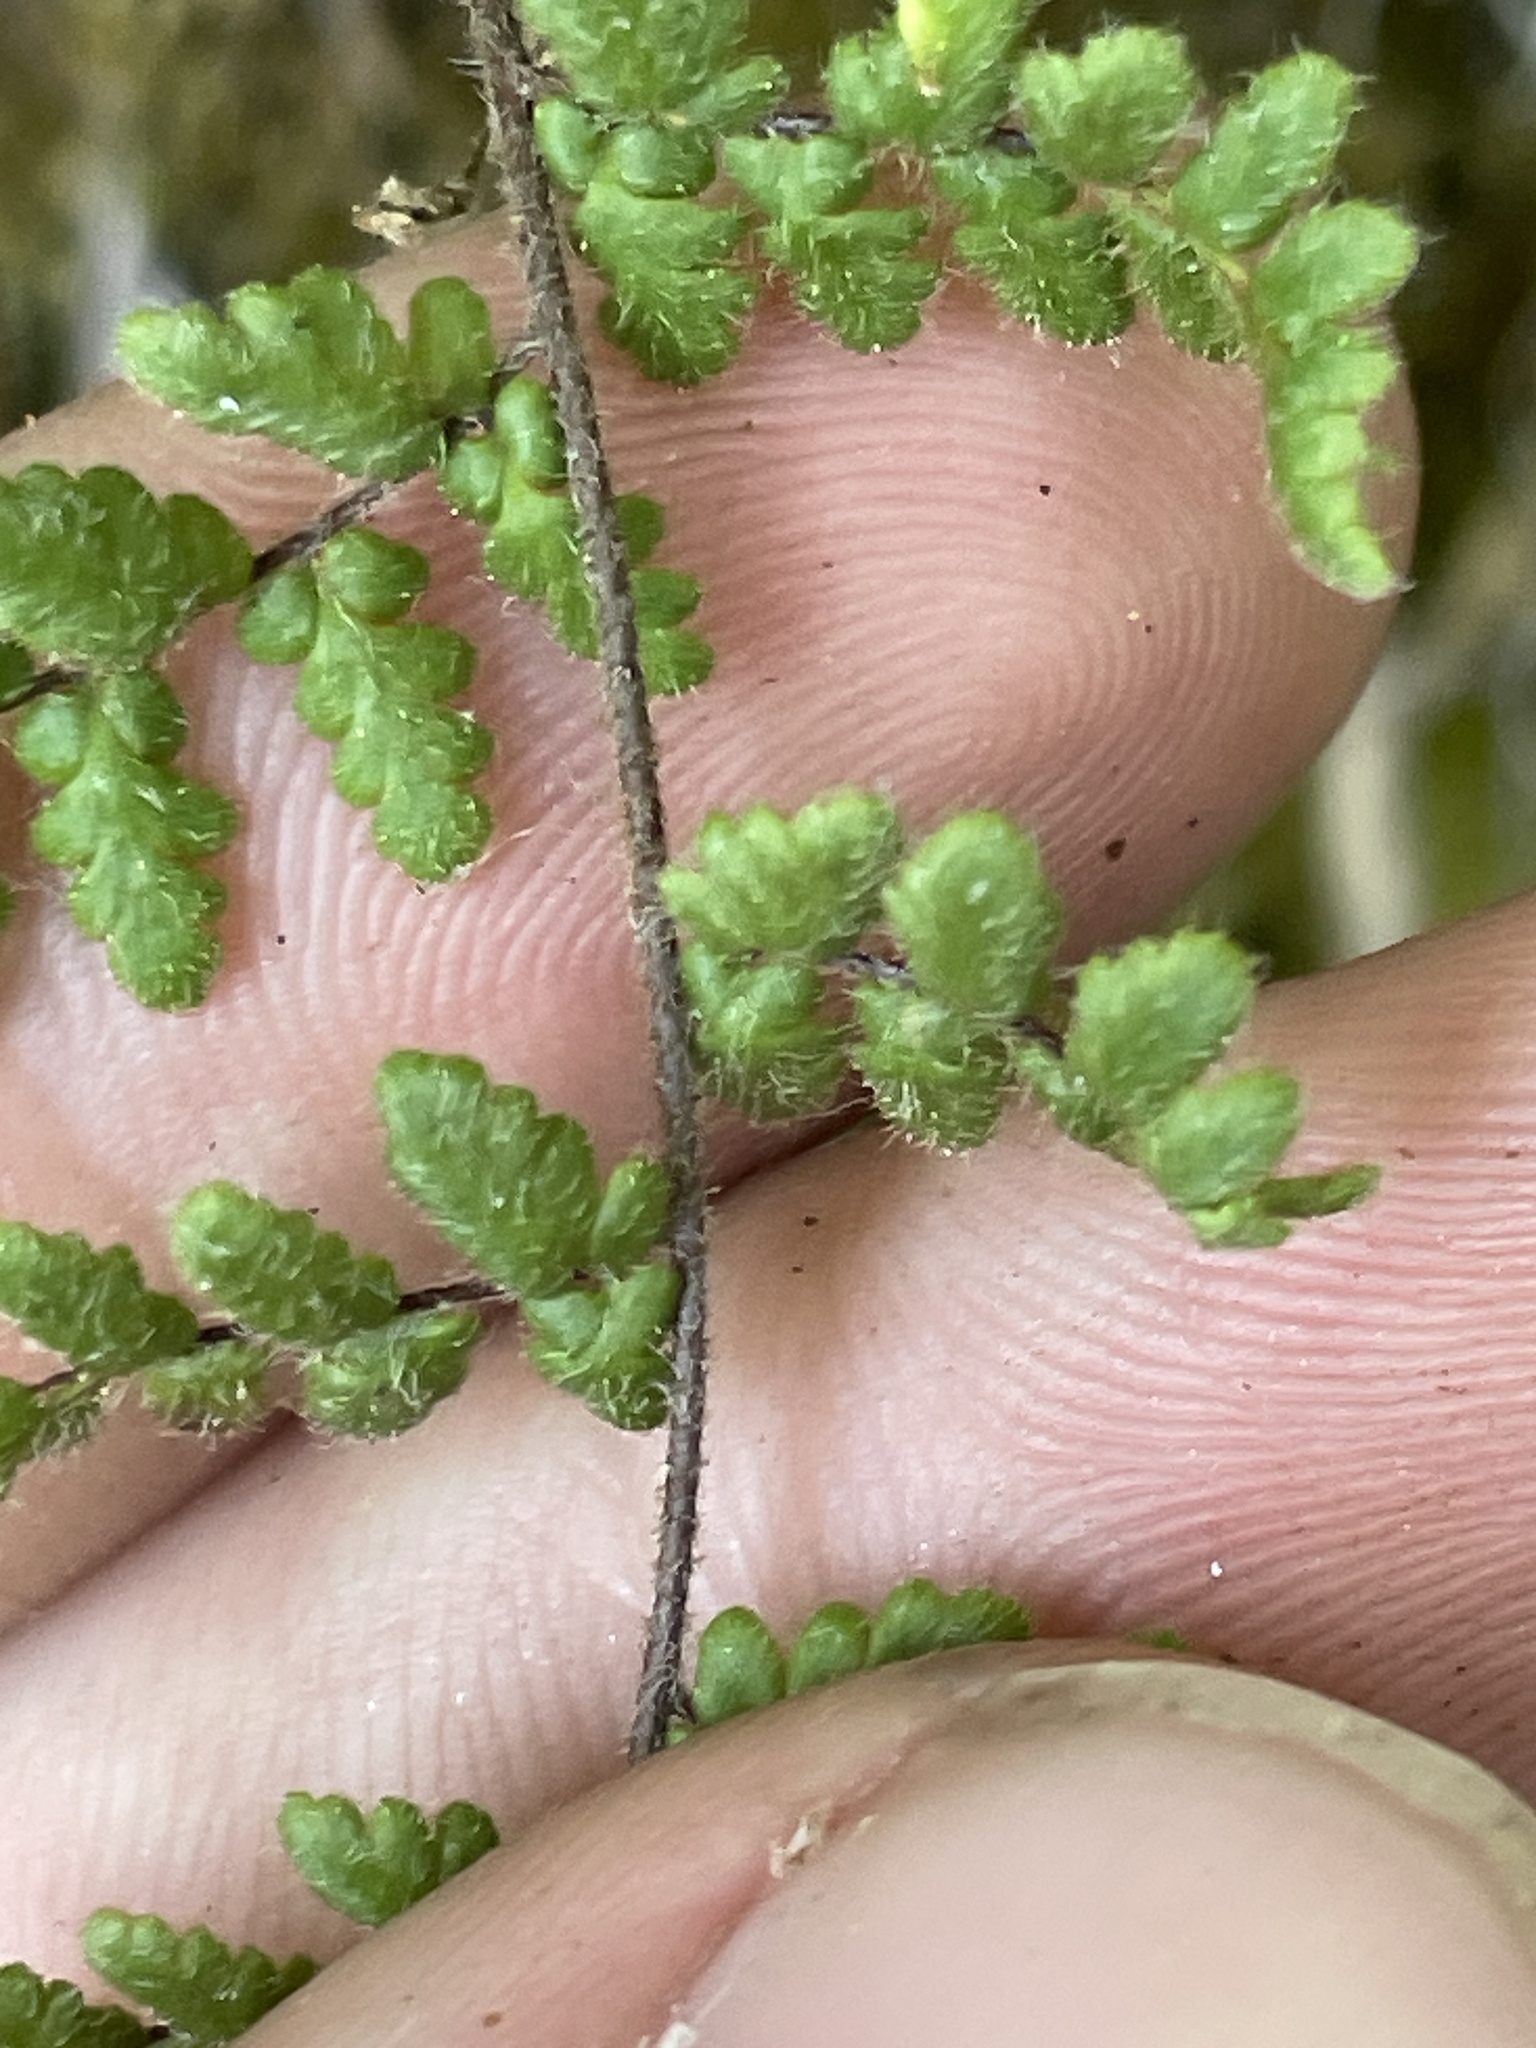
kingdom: Plantae
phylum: Tracheophyta
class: Polypodiopsida
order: Polypodiales
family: Pteridaceae
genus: Myriopteris
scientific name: Myriopteris lanosa
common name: Hairy lip fern
